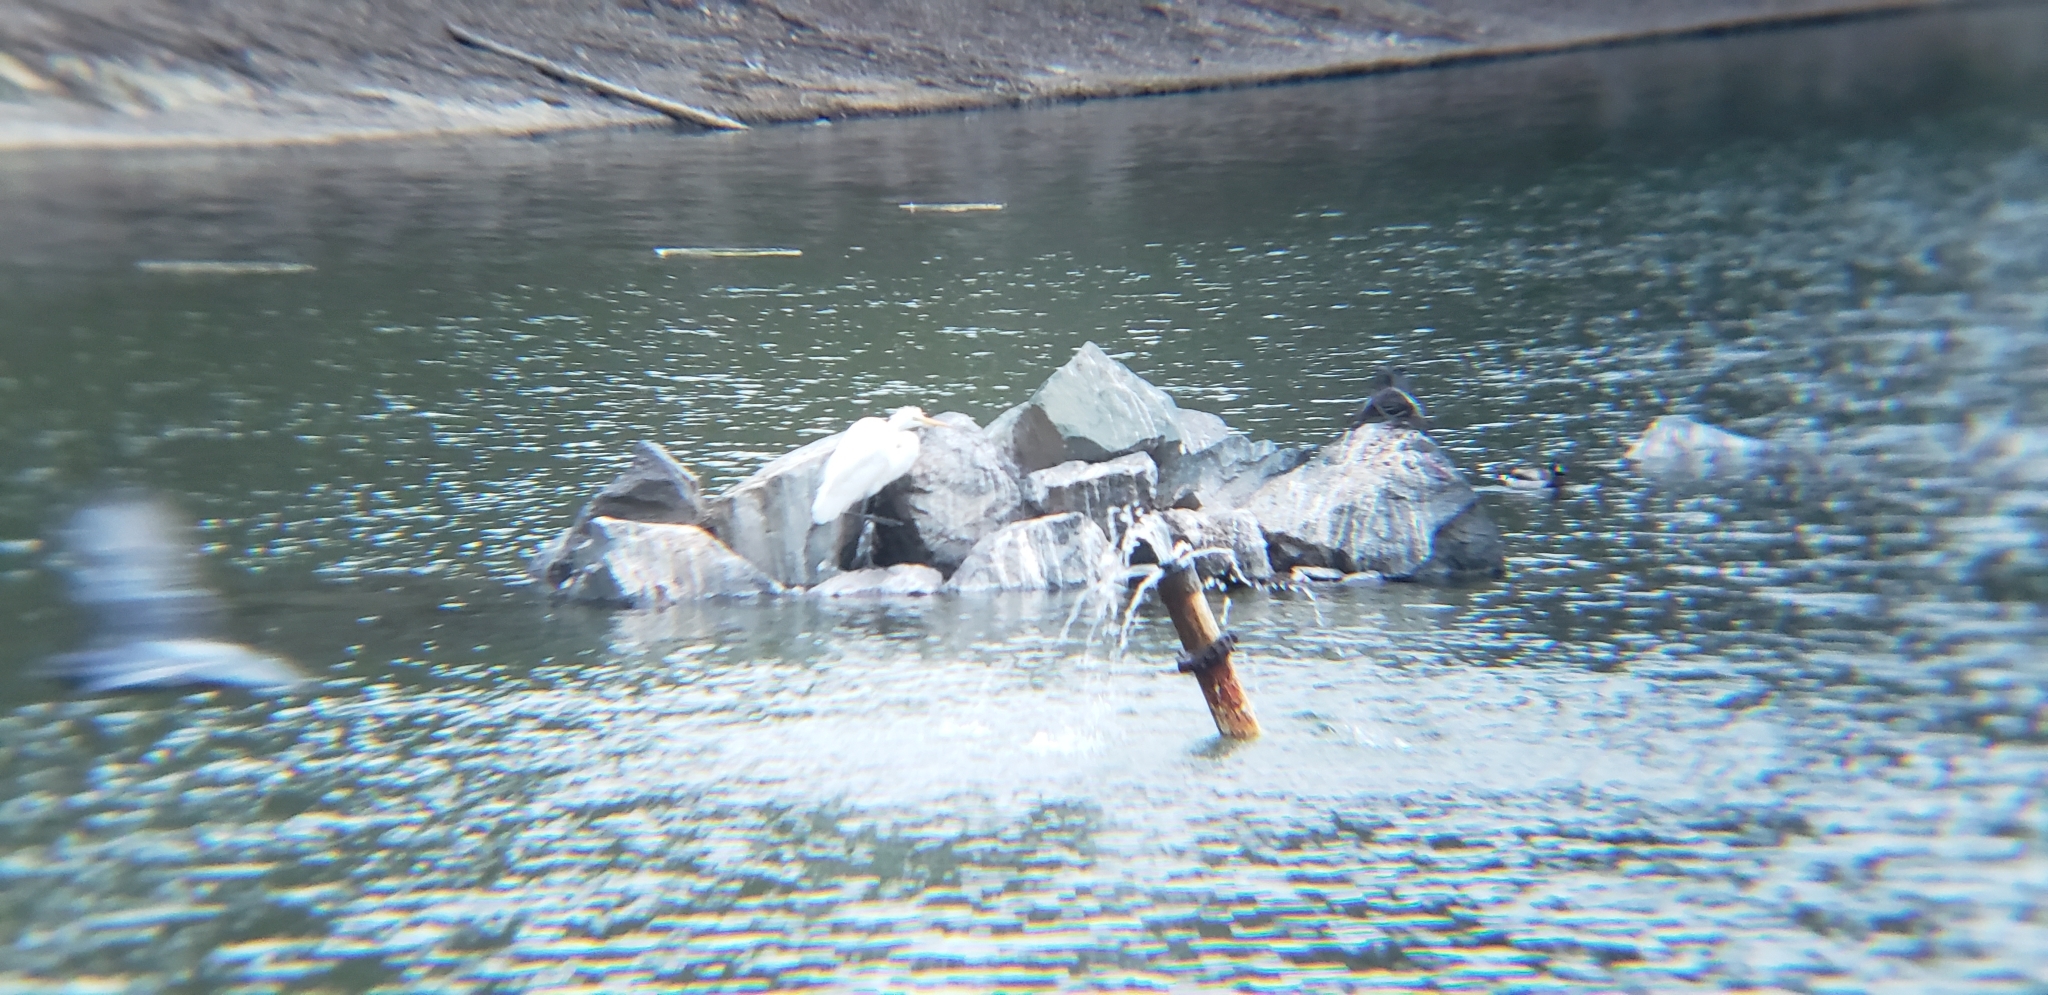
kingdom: Animalia
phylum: Chordata
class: Aves
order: Pelecaniformes
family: Ardeidae
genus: Ardea
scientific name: Ardea alba
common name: Great egret
